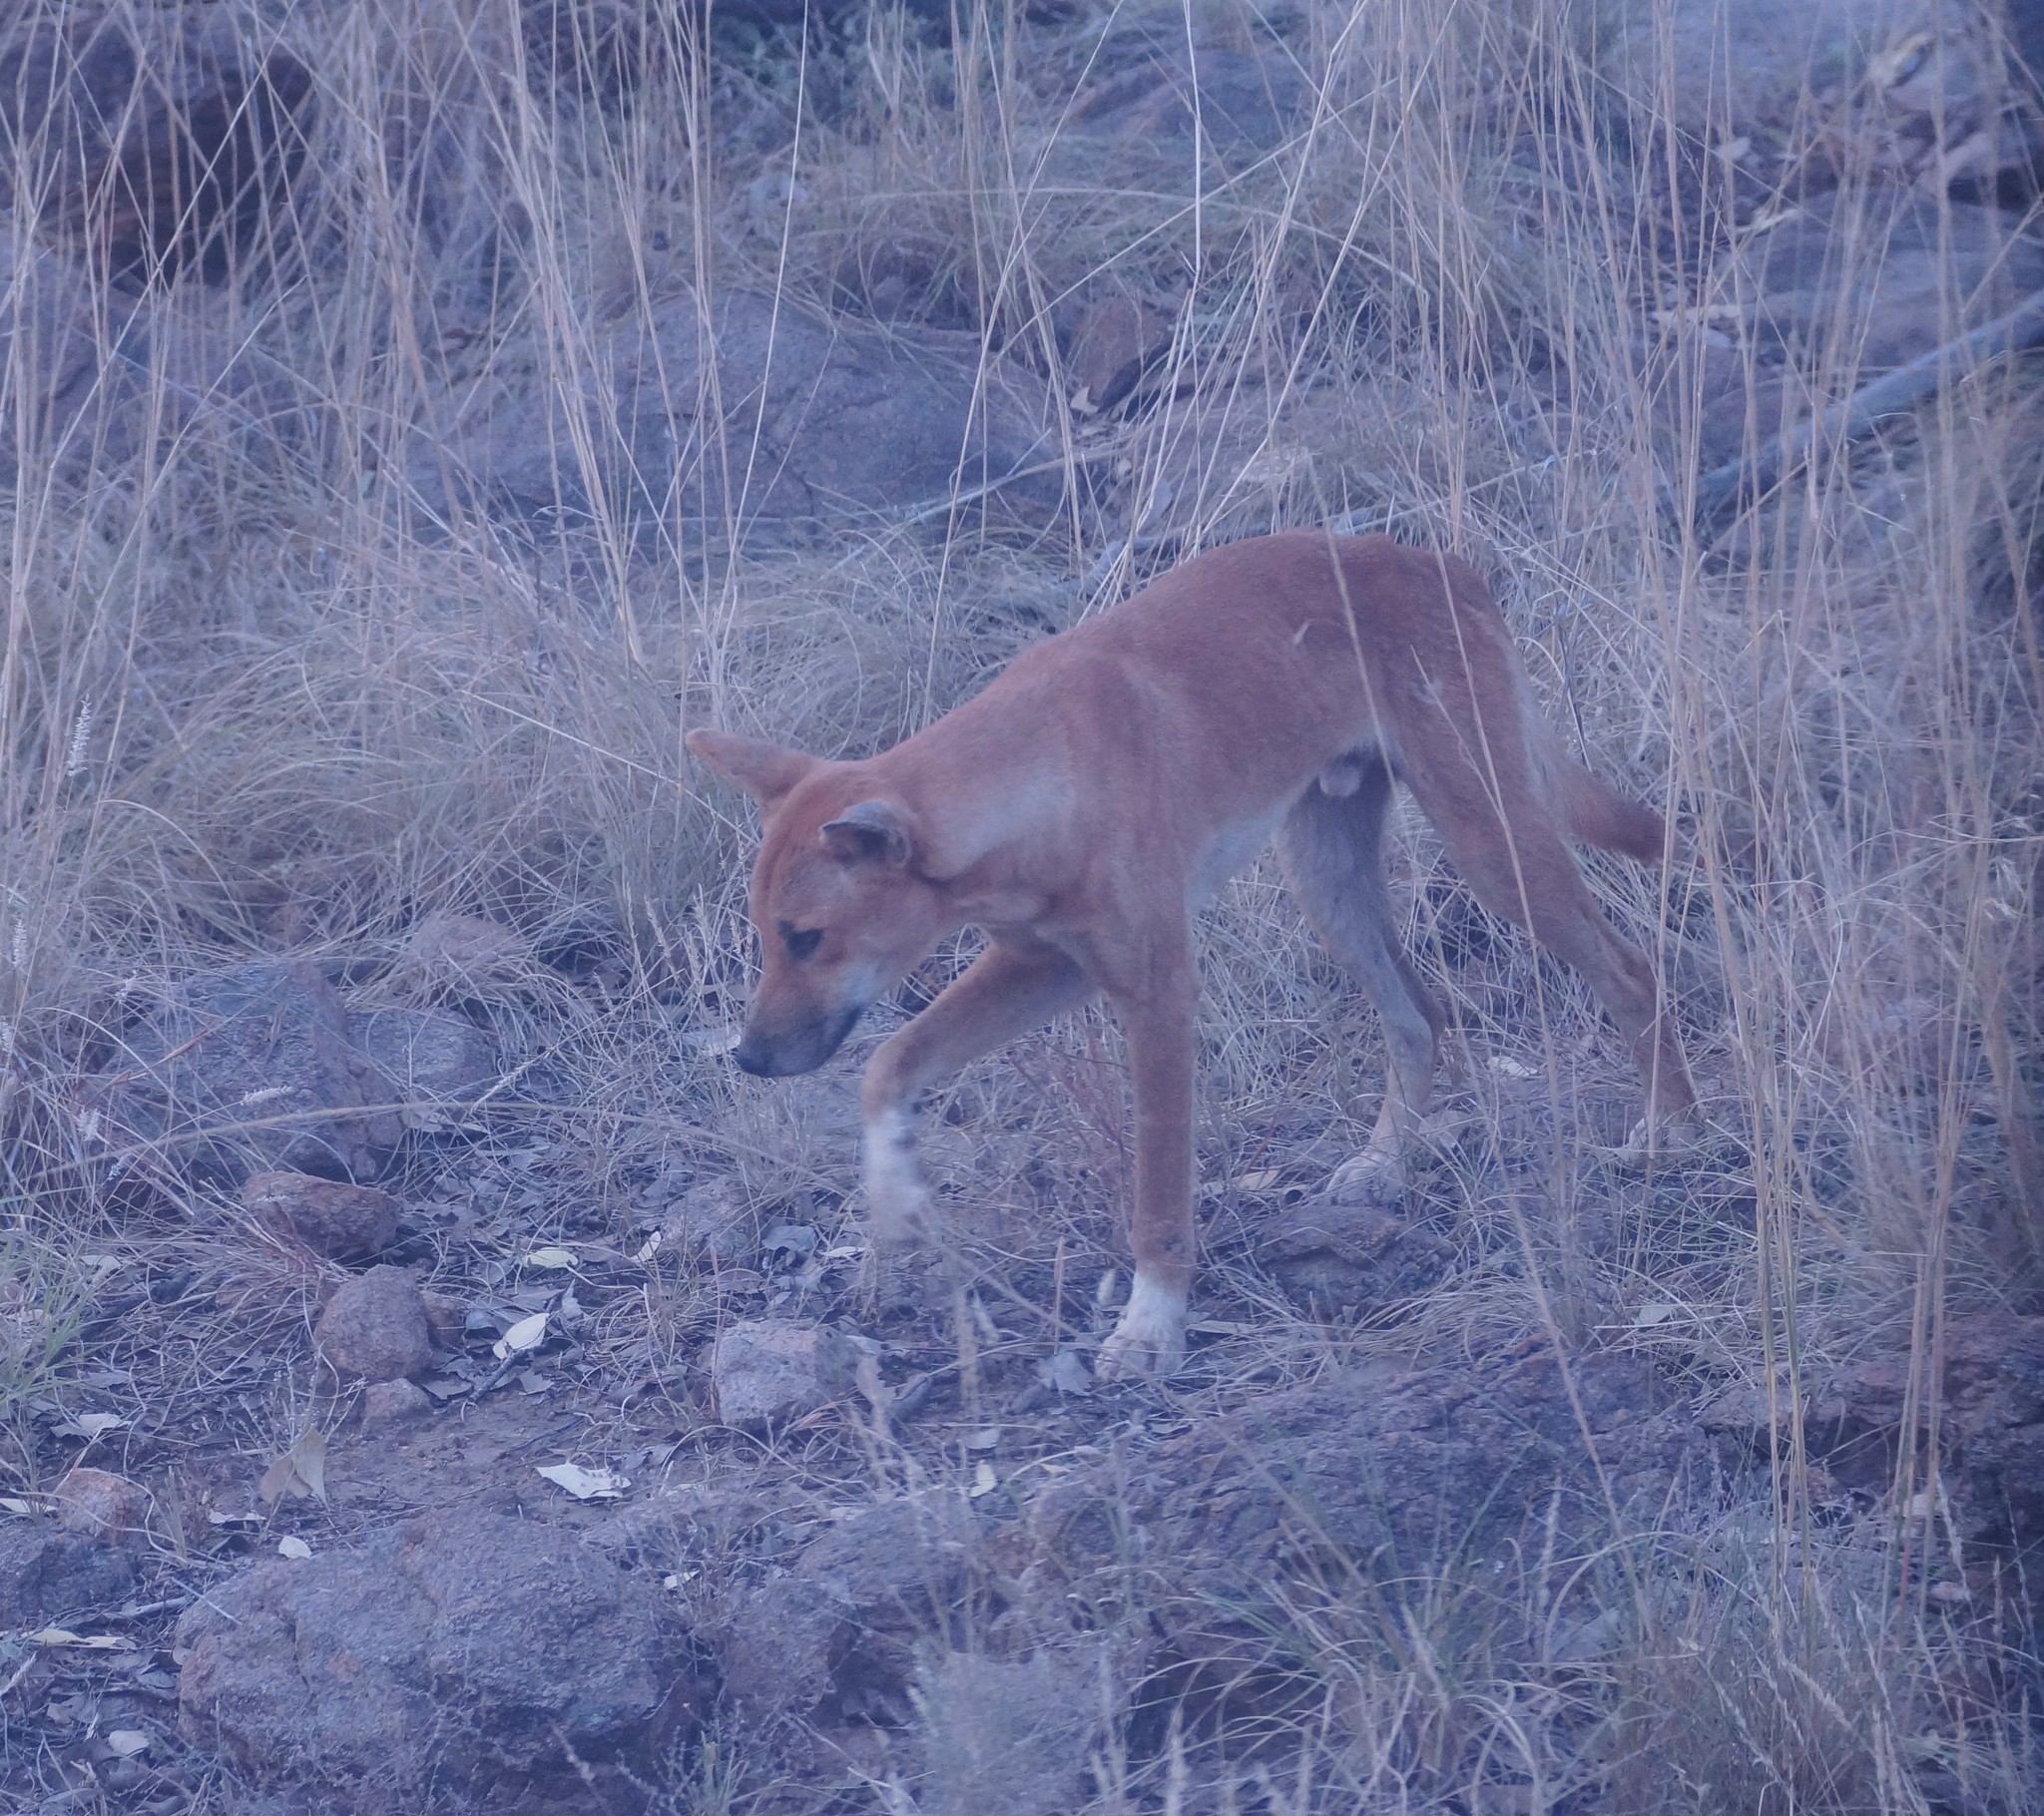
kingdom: Animalia
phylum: Chordata
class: Mammalia
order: Carnivora
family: Canidae
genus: Canis
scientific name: Canis lupus
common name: Gray wolf
